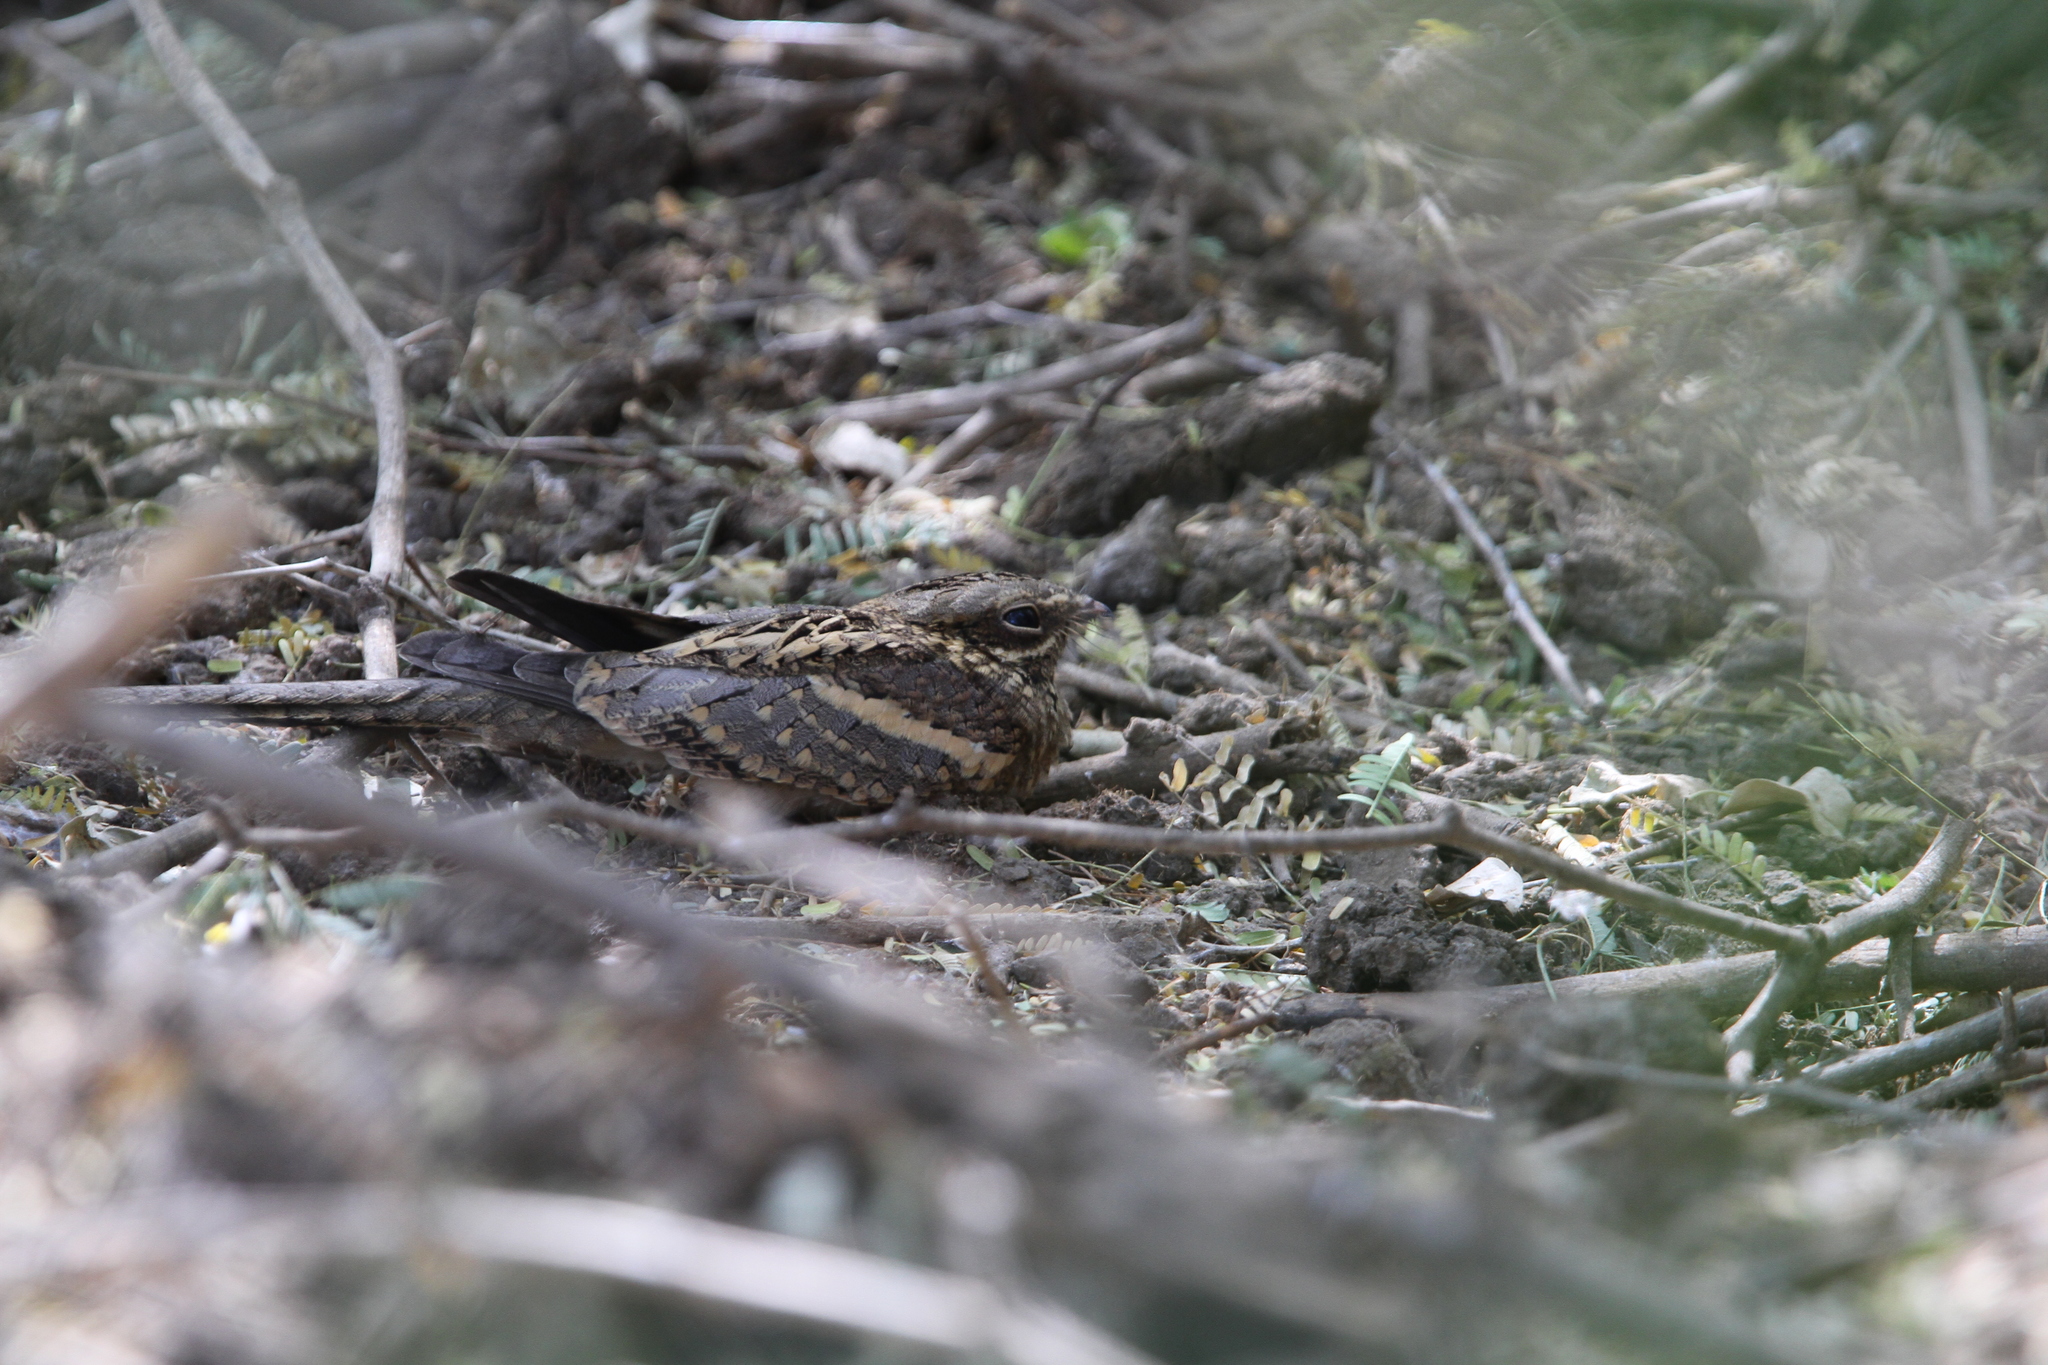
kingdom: Animalia
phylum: Chordata
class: Aves
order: Caprimulgiformes
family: Caprimulgidae
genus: Caprimulgus
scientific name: Caprimulgus climacurus
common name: Long-tailed nightjar
